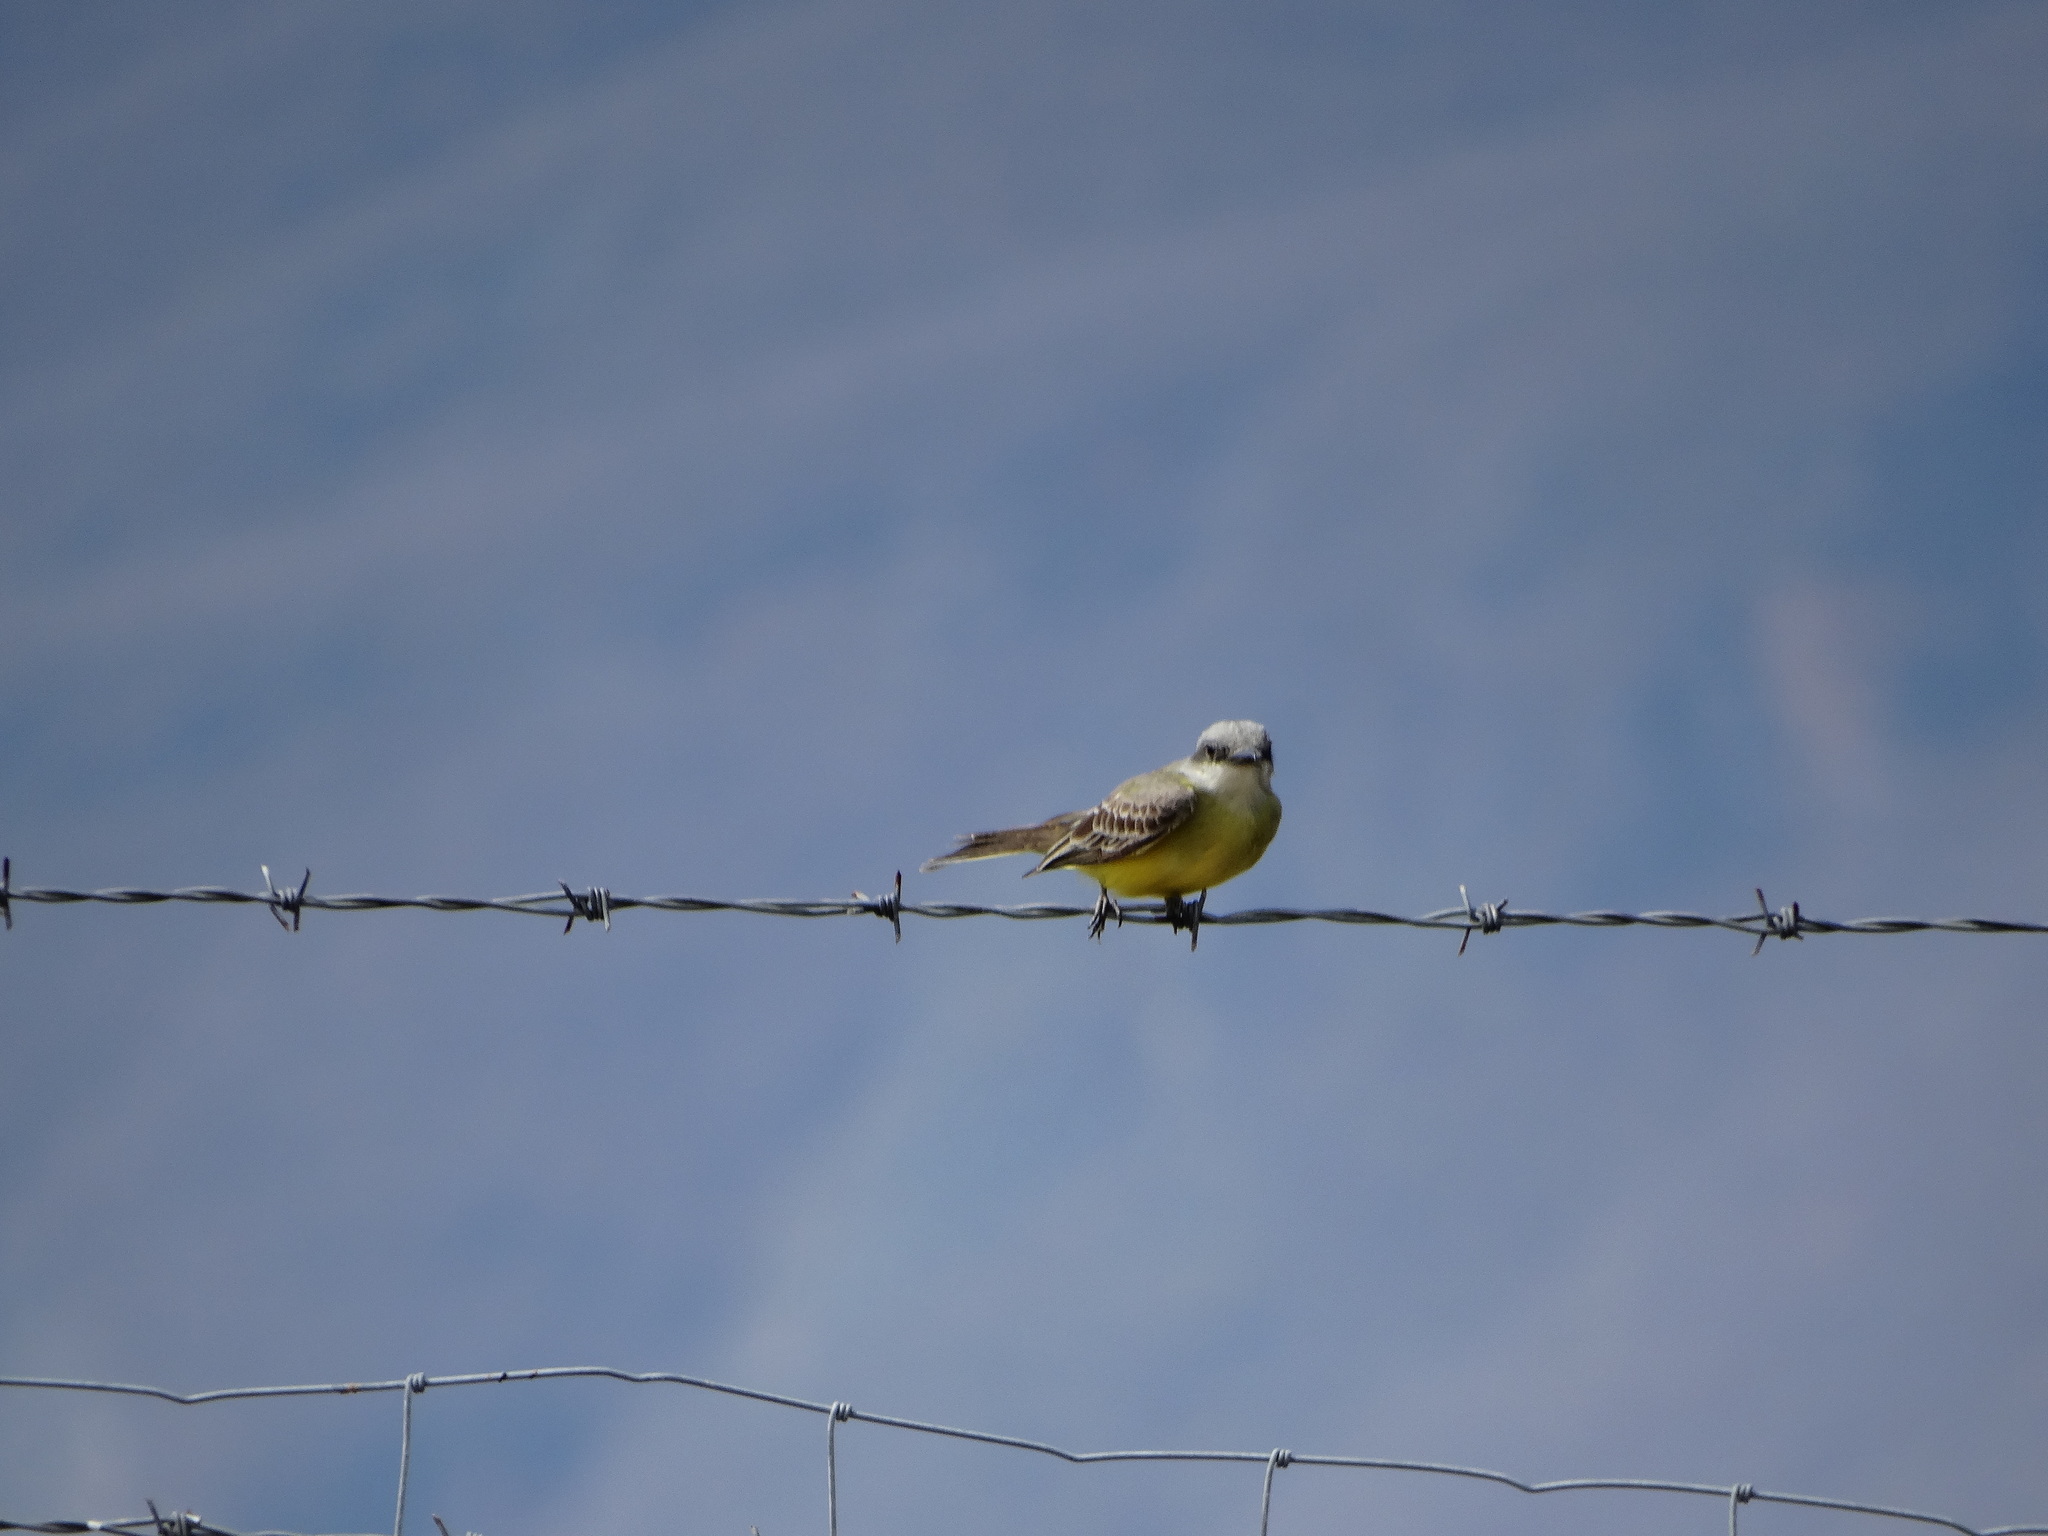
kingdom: Animalia
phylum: Chordata
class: Aves
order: Passeriformes
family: Tyrannidae
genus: Tyrannus
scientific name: Tyrannus verticalis
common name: Western kingbird
